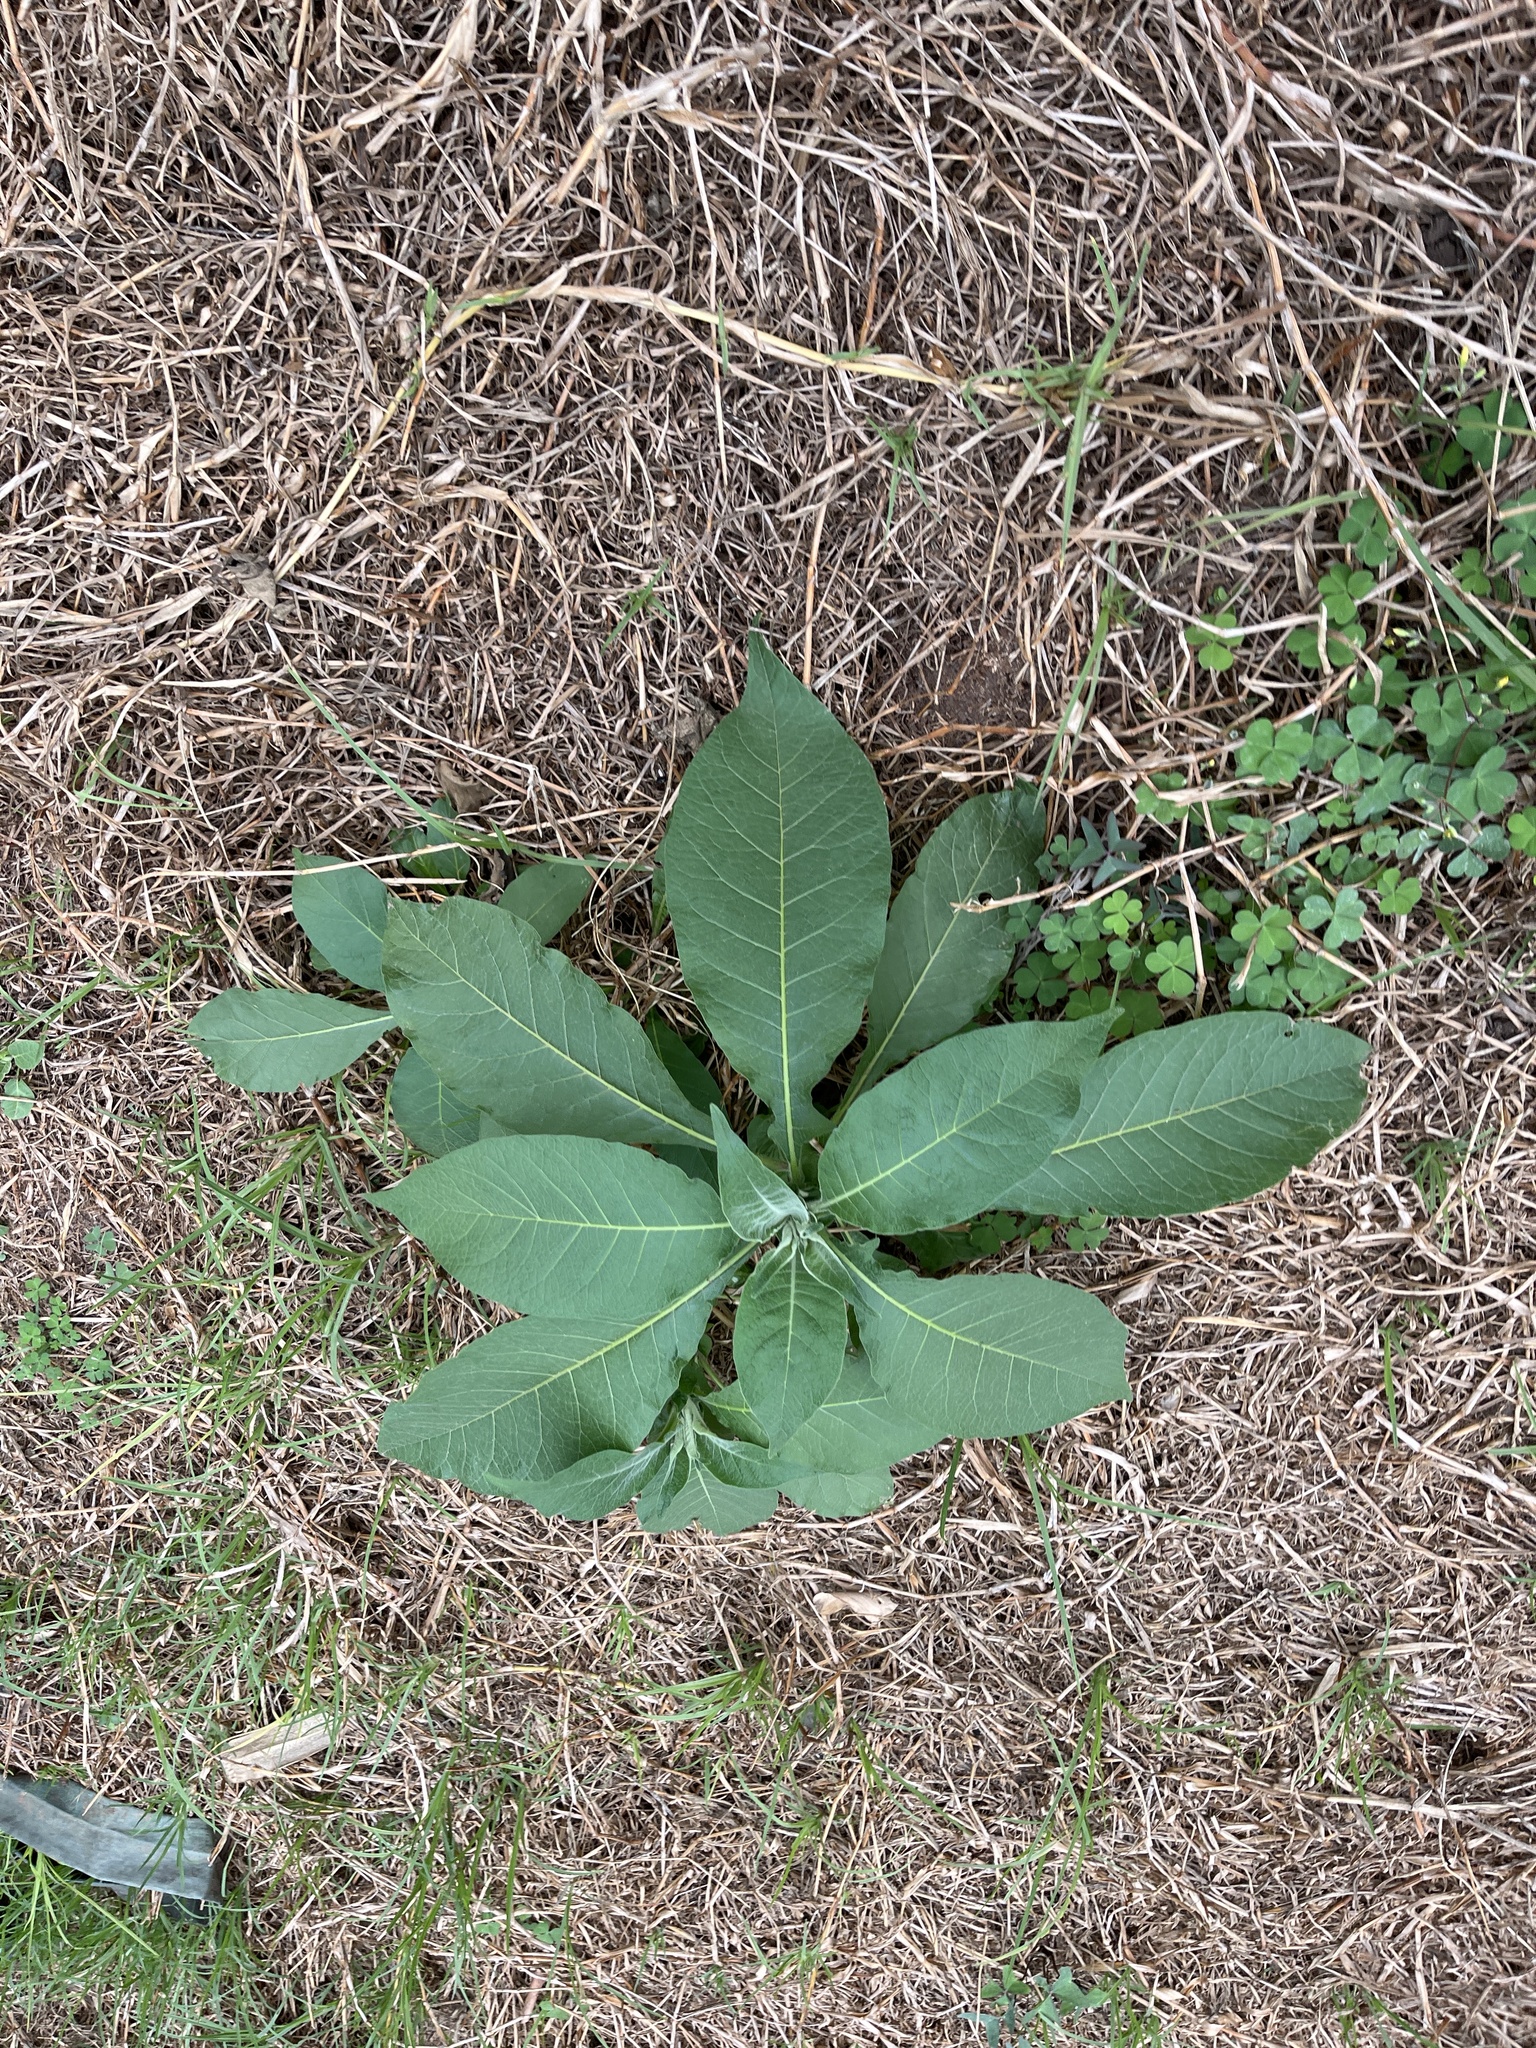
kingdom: Plantae
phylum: Tracheophyta
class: Magnoliopsida
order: Solanales
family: Solanaceae
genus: Solanum
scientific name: Solanum mauritianum
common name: Earleaf nightshade
